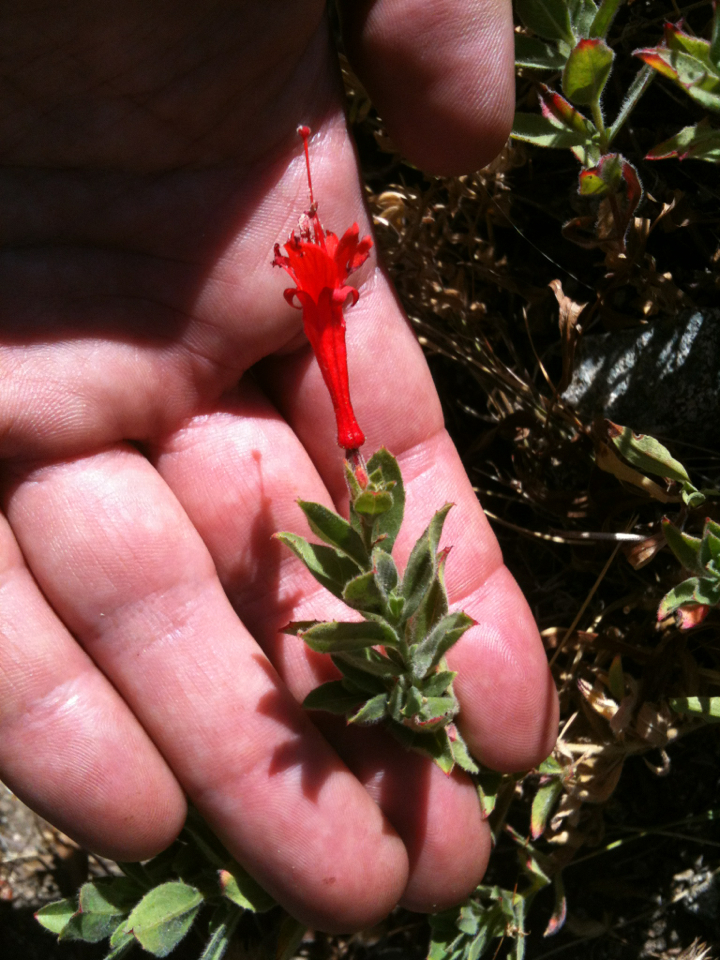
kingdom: Plantae
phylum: Tracheophyta
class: Magnoliopsida
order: Myrtales
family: Onagraceae
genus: Epilobium
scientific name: Epilobium canum
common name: California-fuchsia
